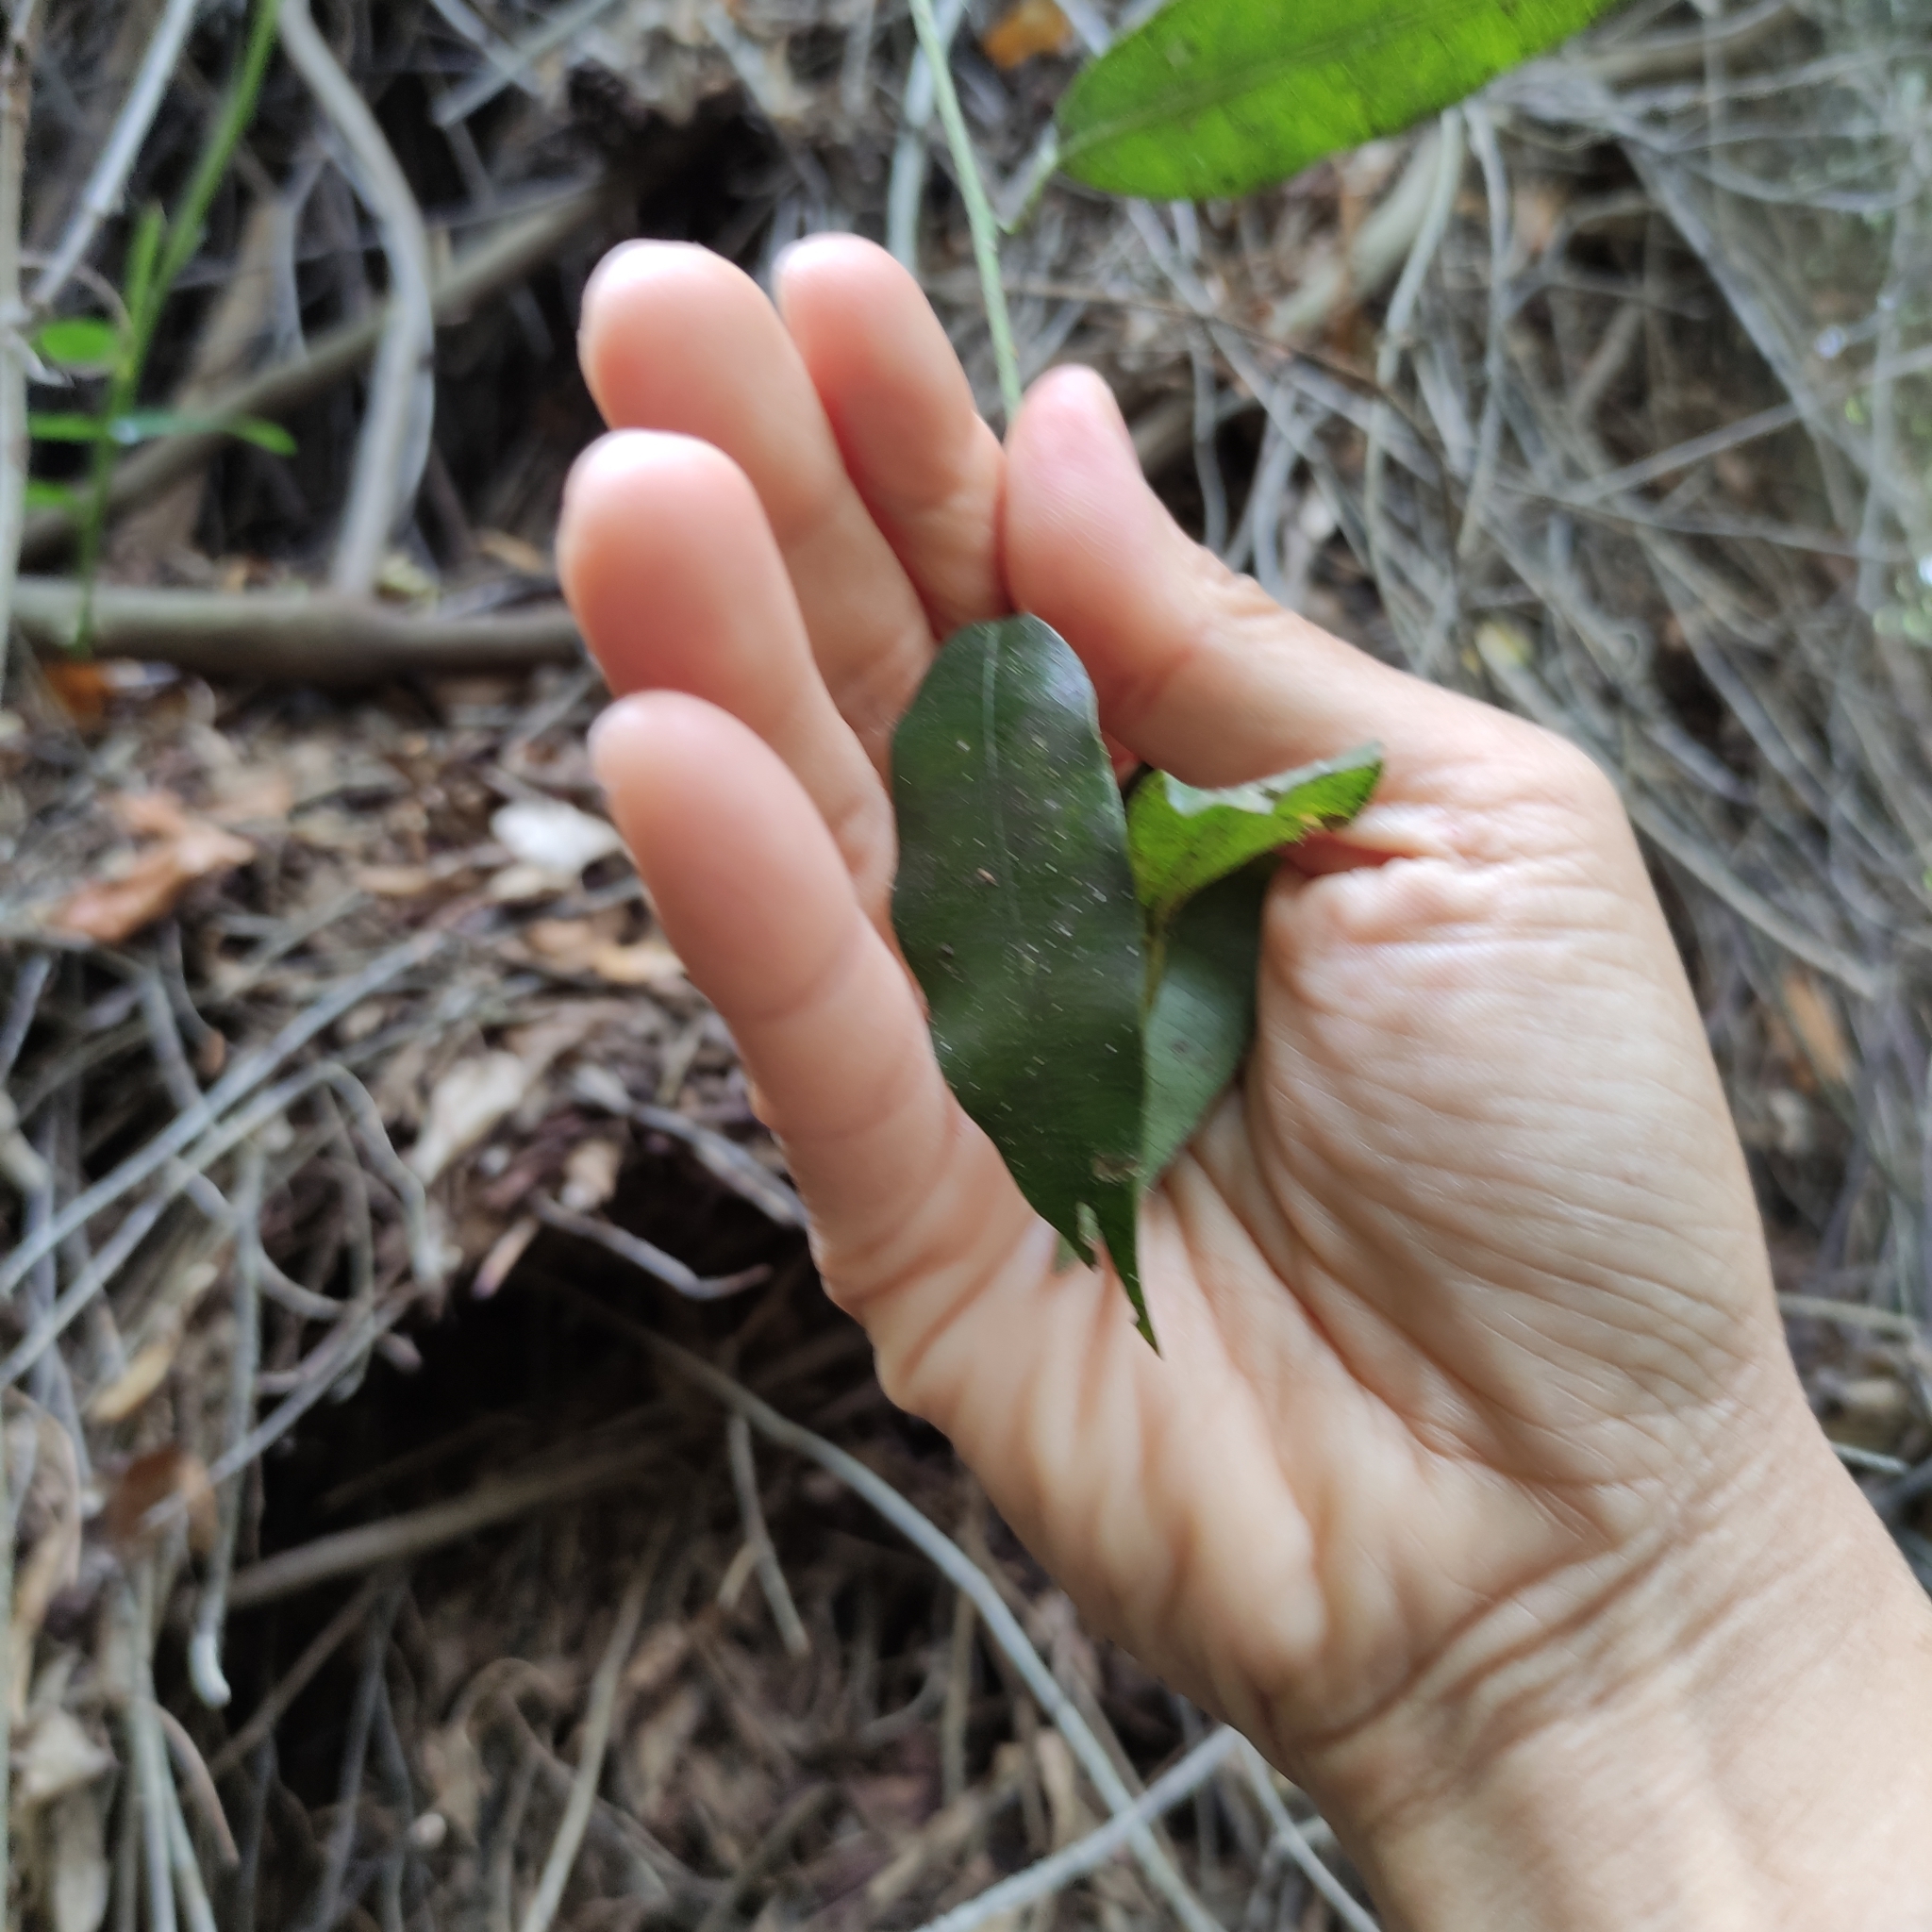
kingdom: Plantae
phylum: Tracheophyta
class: Magnoliopsida
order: Malpighiales
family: Passifloraceae
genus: Passiflora
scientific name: Passiflora tetrandra
